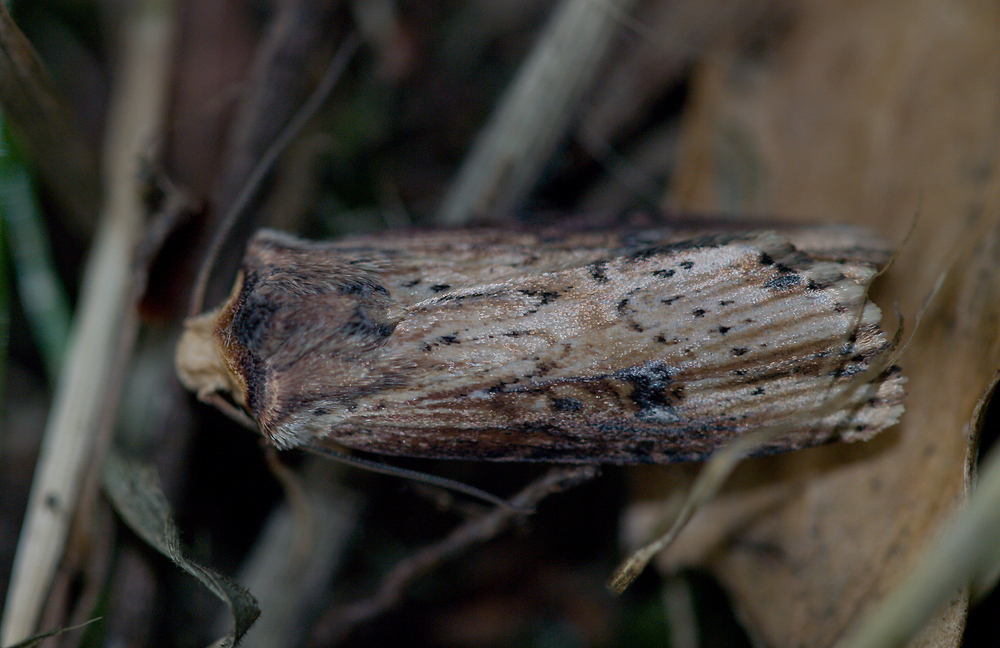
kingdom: Animalia
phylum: Arthropoda
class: Insecta
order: Lepidoptera
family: Noctuidae
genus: Axylia
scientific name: Axylia putris
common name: Flame
